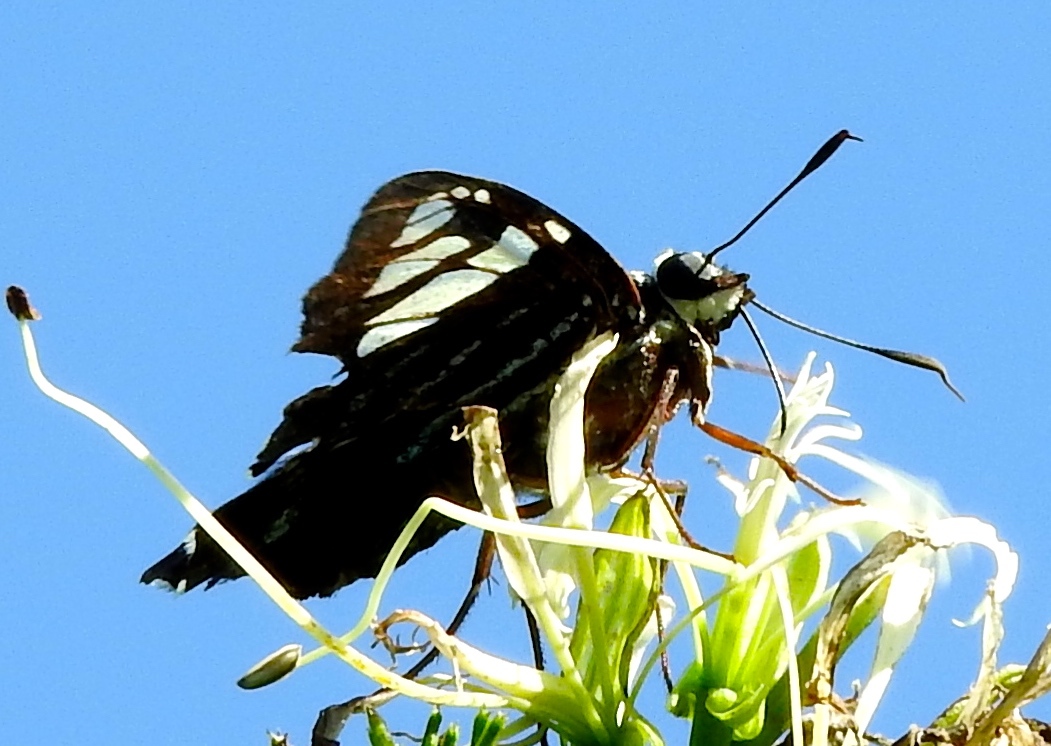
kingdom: Animalia
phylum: Arthropoda
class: Insecta
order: Lepidoptera
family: Hesperiidae
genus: Phocides
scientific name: Phocides pigmalion
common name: Mangrove skipper
